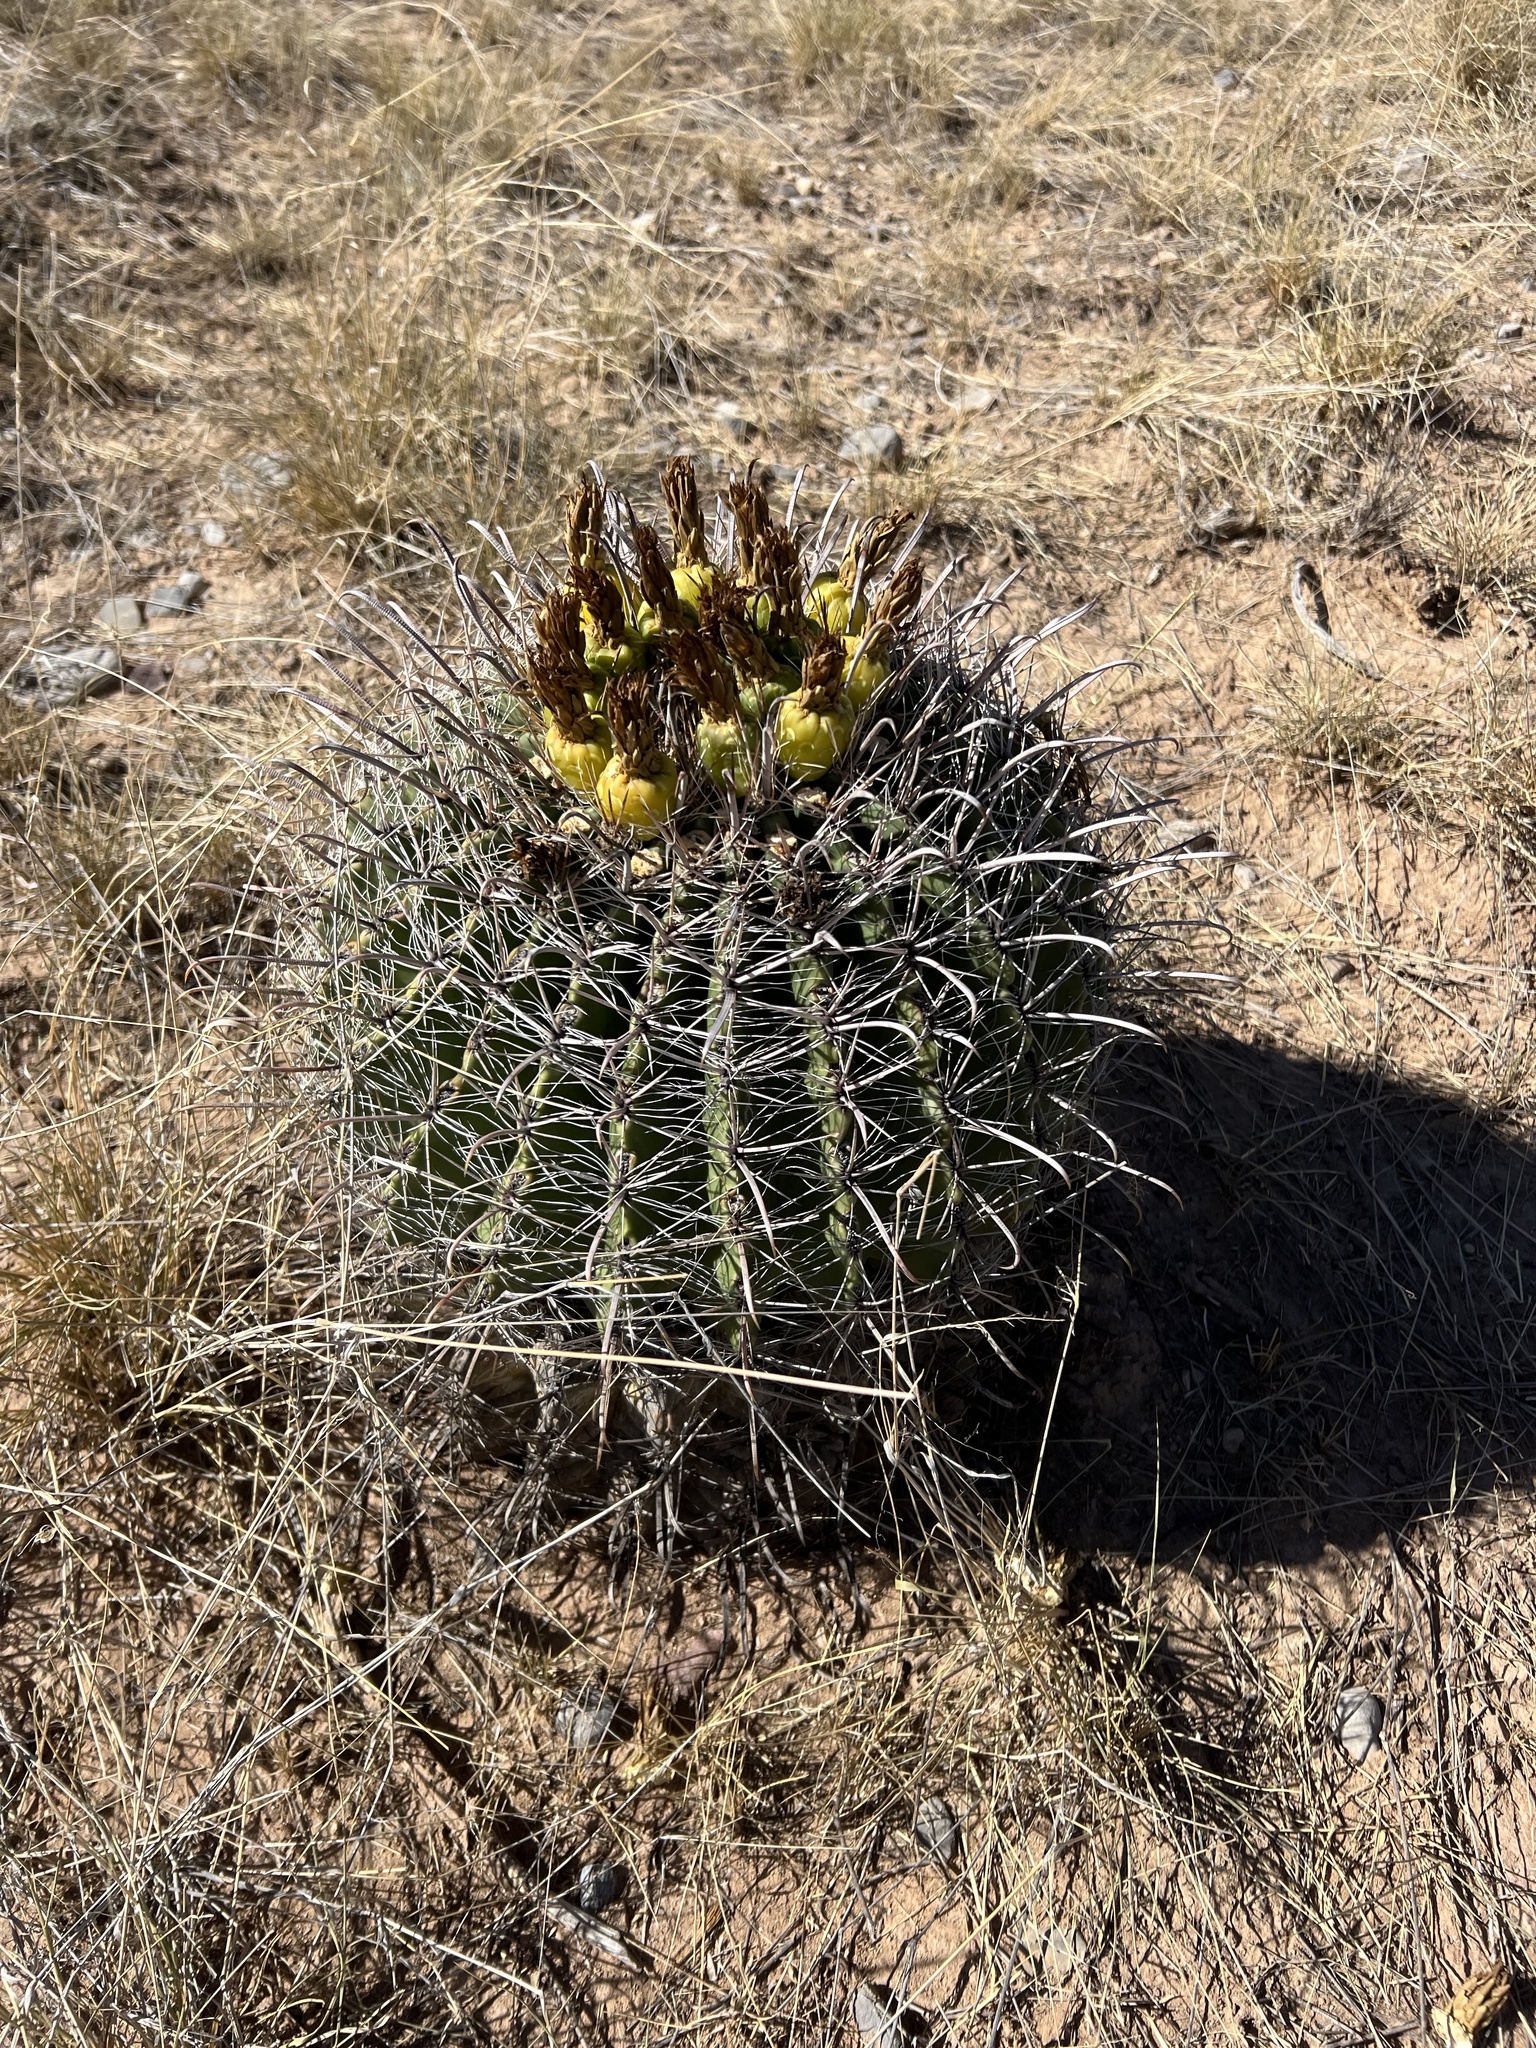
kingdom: Plantae
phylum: Tracheophyta
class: Magnoliopsida
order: Caryophyllales
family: Cactaceae
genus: Ferocactus
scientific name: Ferocactus wislizeni
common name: Candy barrel cactus
